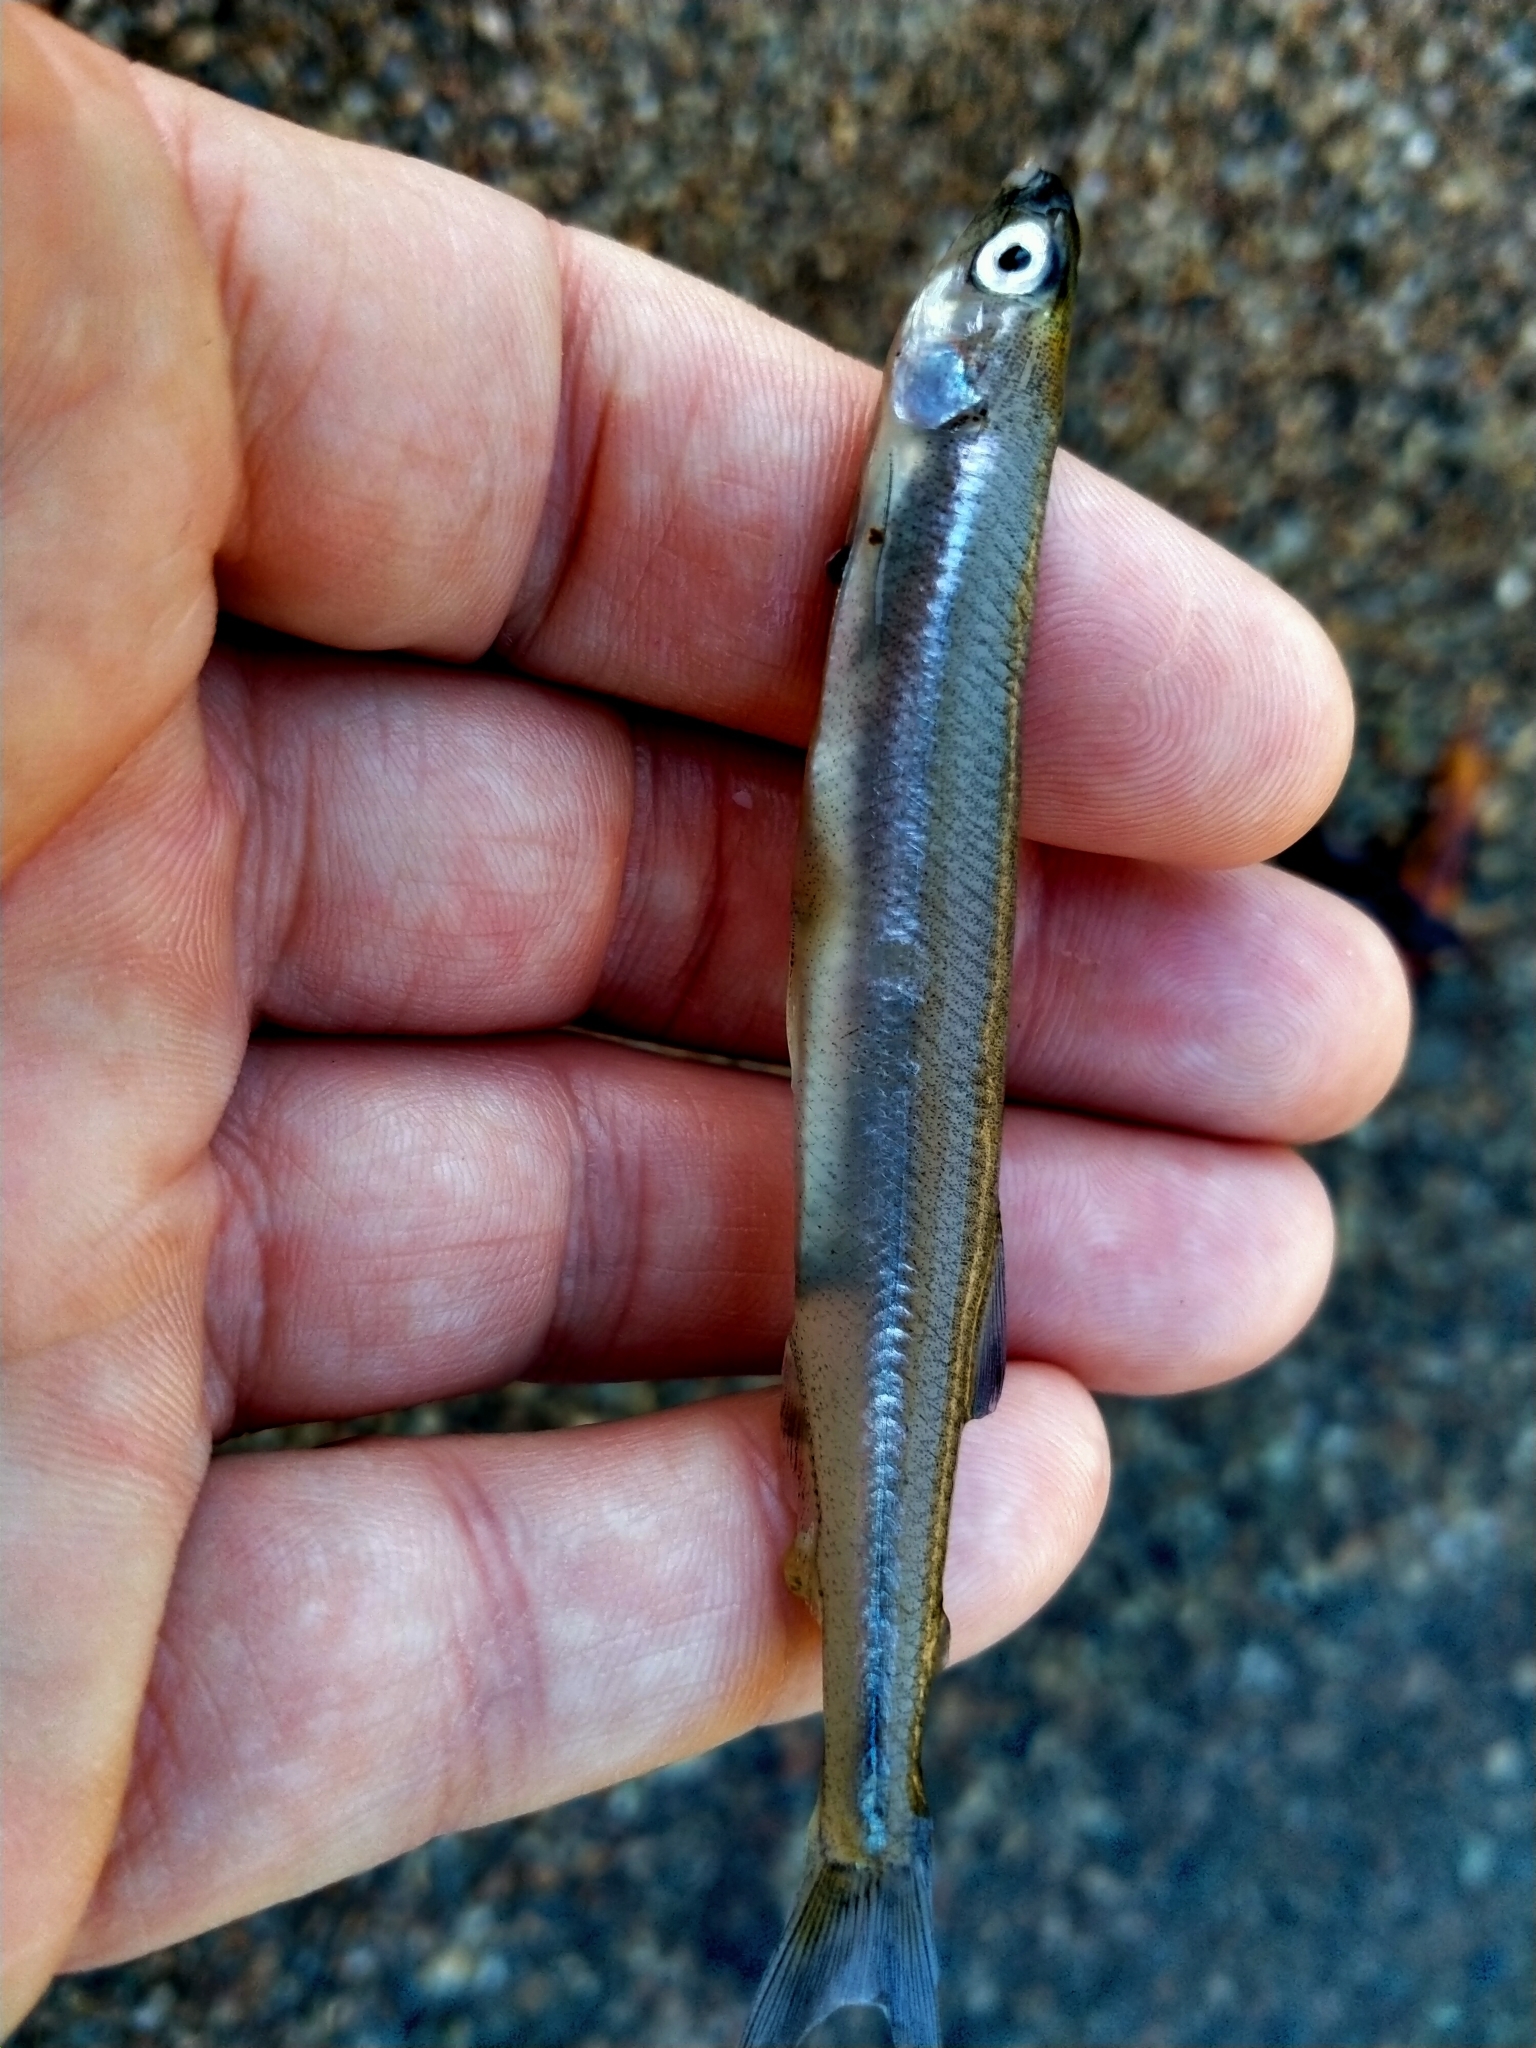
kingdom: Animalia
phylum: Chordata
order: Osmeriformes
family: Retropinnidae
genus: Retropinna
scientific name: Retropinna retropinna
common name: Common smelt
